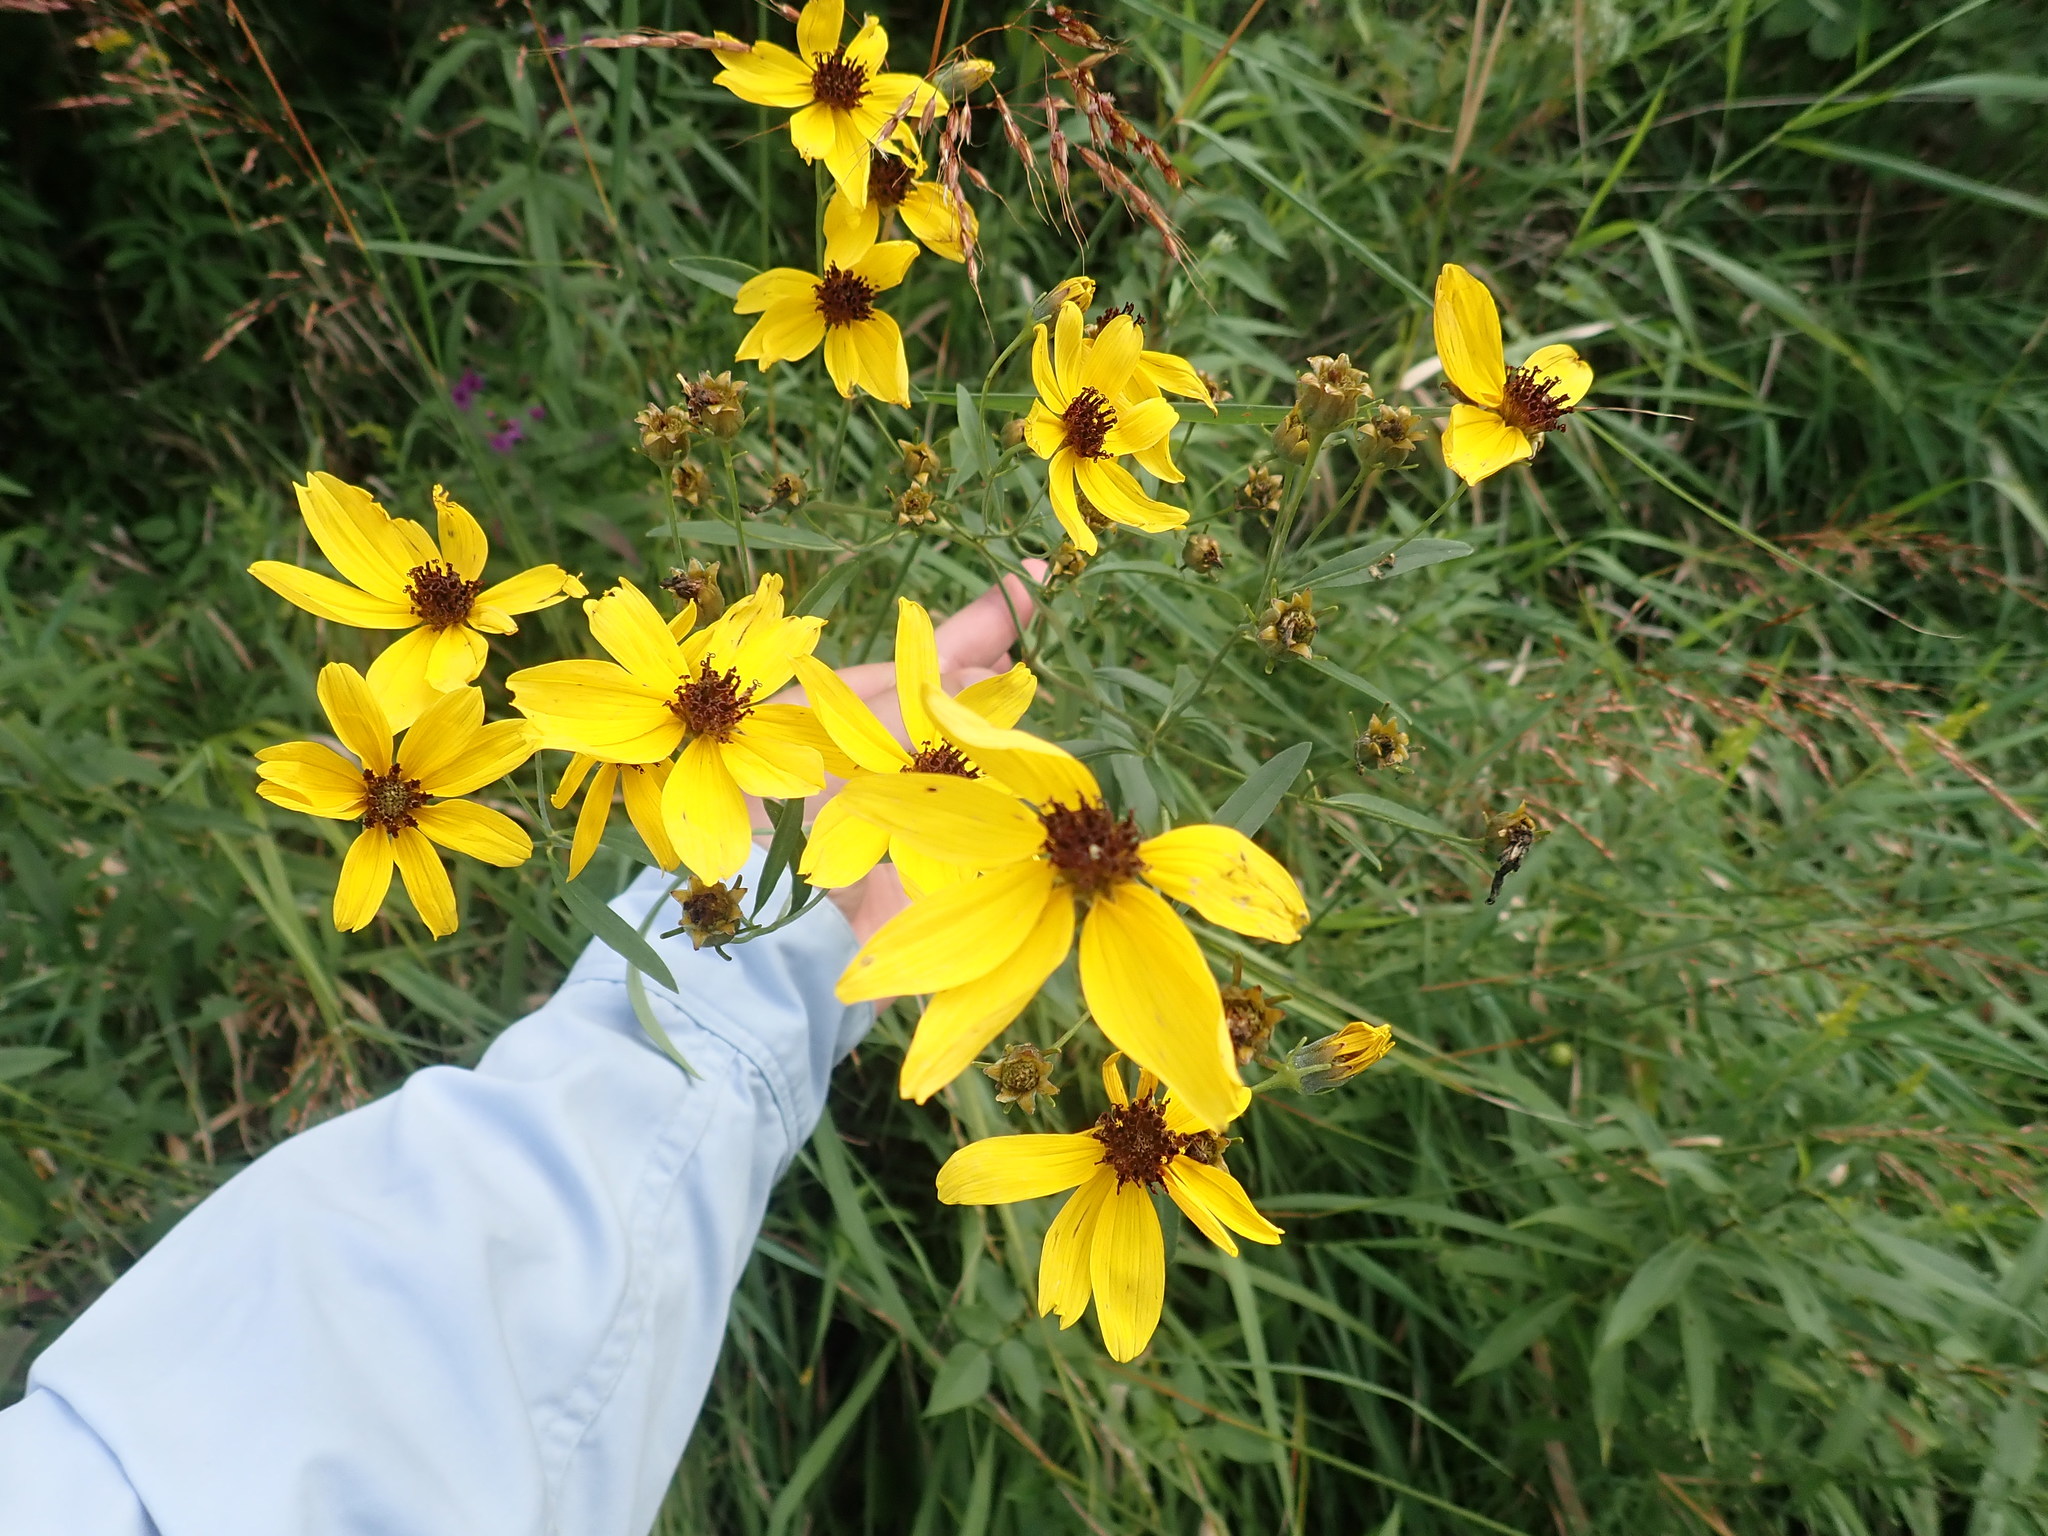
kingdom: Plantae
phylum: Tracheophyta
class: Magnoliopsida
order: Asterales
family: Asteraceae
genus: Coreopsis
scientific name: Coreopsis tripteris
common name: Tall coreopsis
